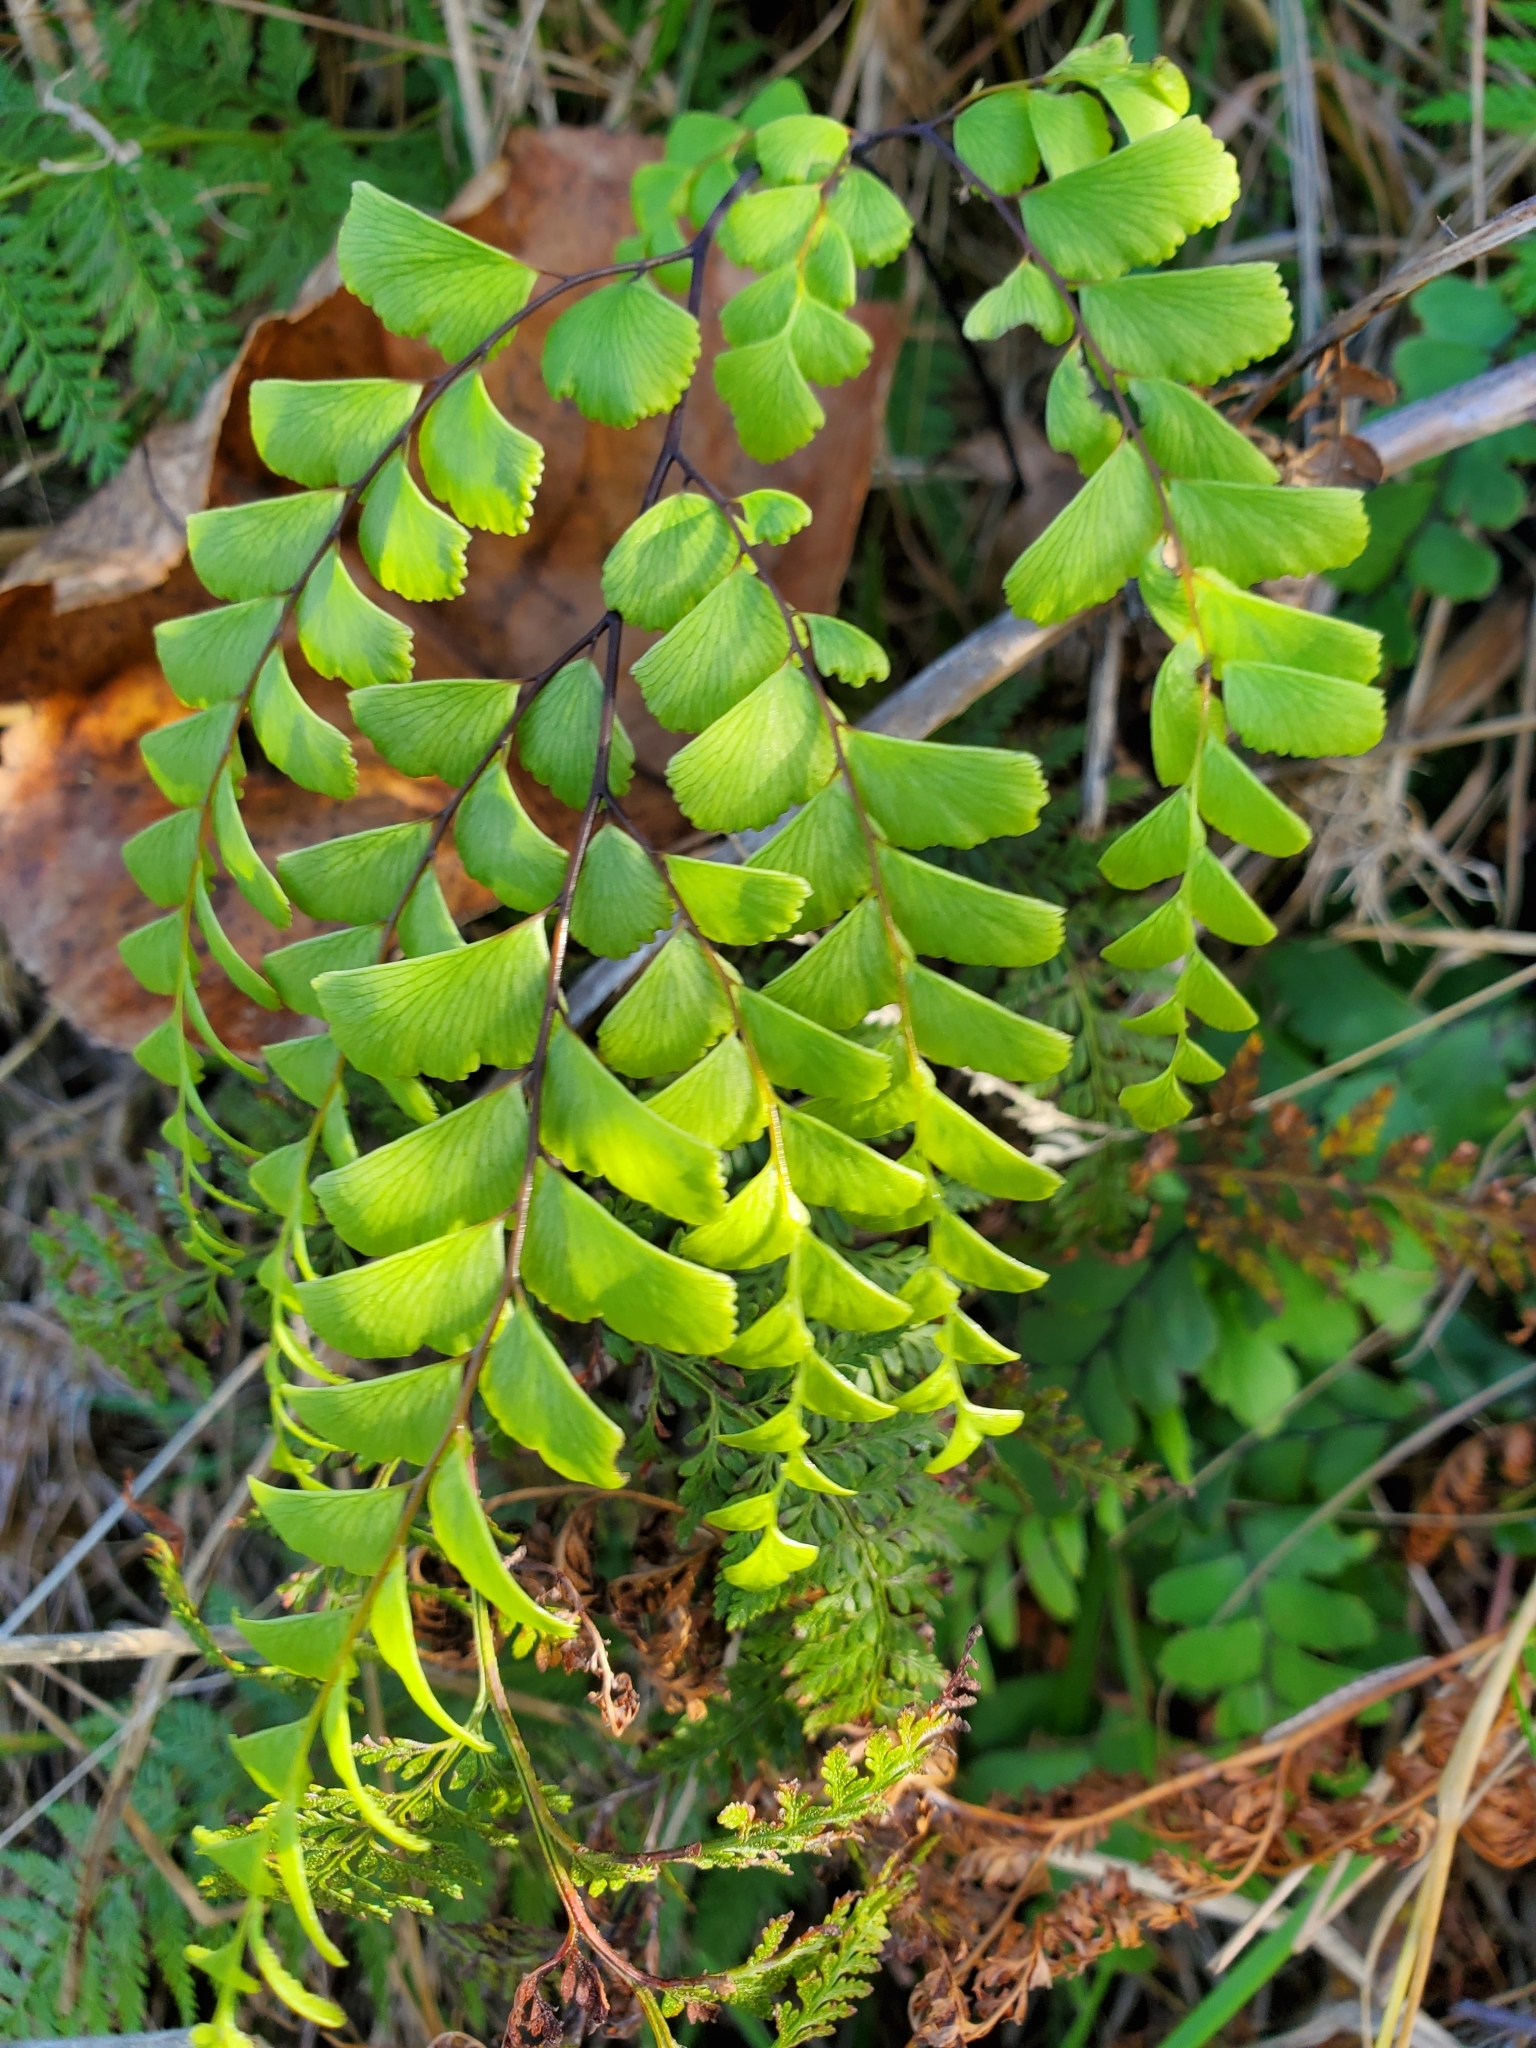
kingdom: Plantae
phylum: Tracheophyta
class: Polypodiopsida
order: Polypodiales
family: Pteridaceae
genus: Adiantum
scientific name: Adiantum cunninghamii
